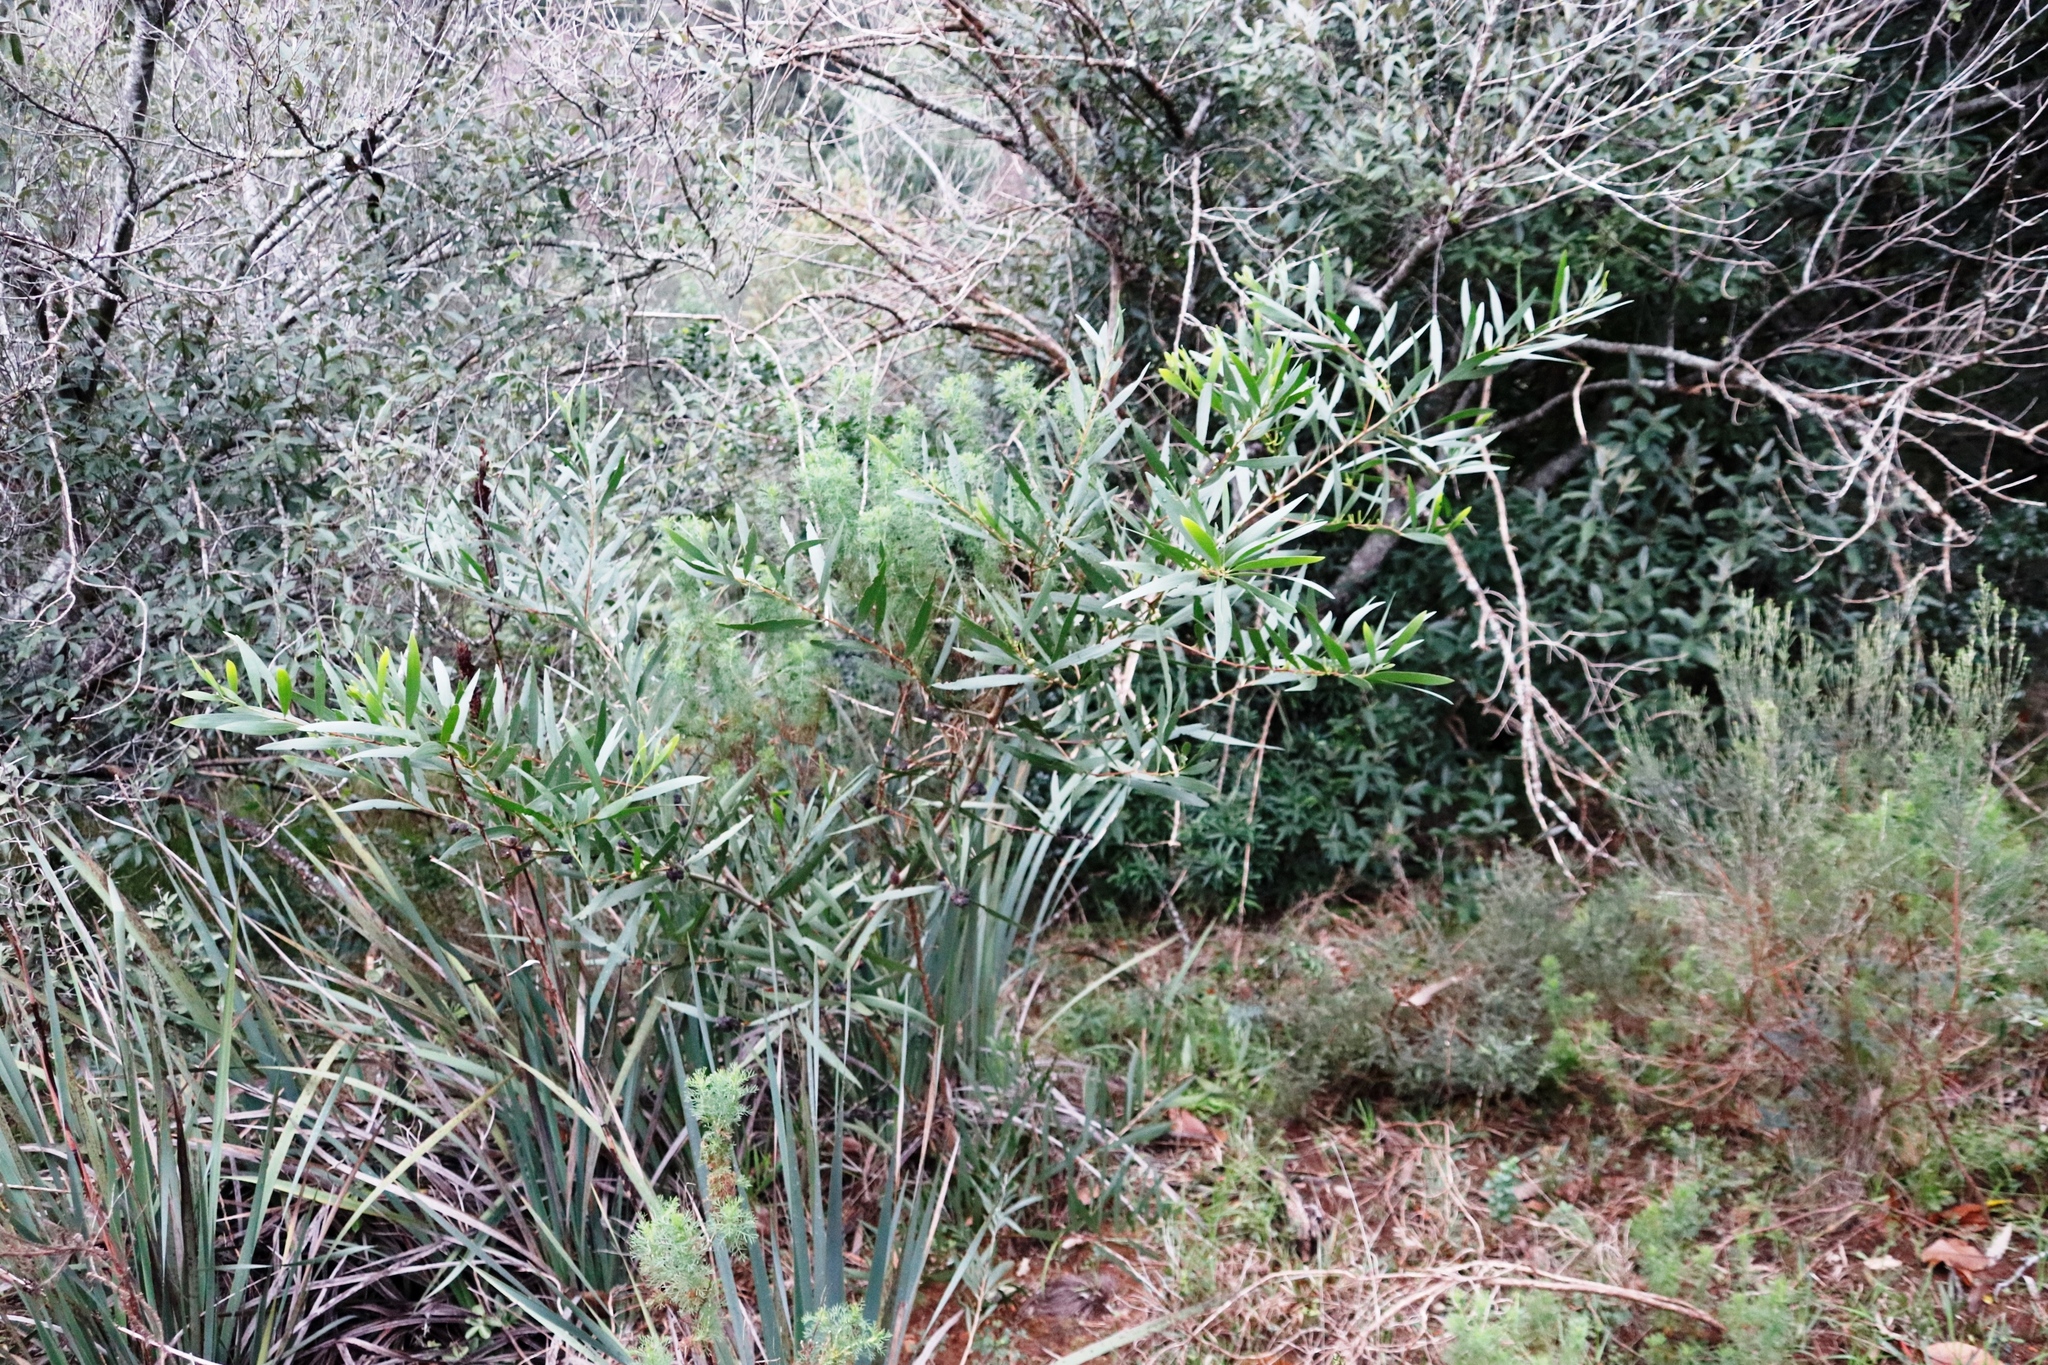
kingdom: Plantae
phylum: Tracheophyta
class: Magnoliopsida
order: Fabales
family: Fabaceae
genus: Acacia
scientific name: Acacia longifolia
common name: Sydney golden wattle
